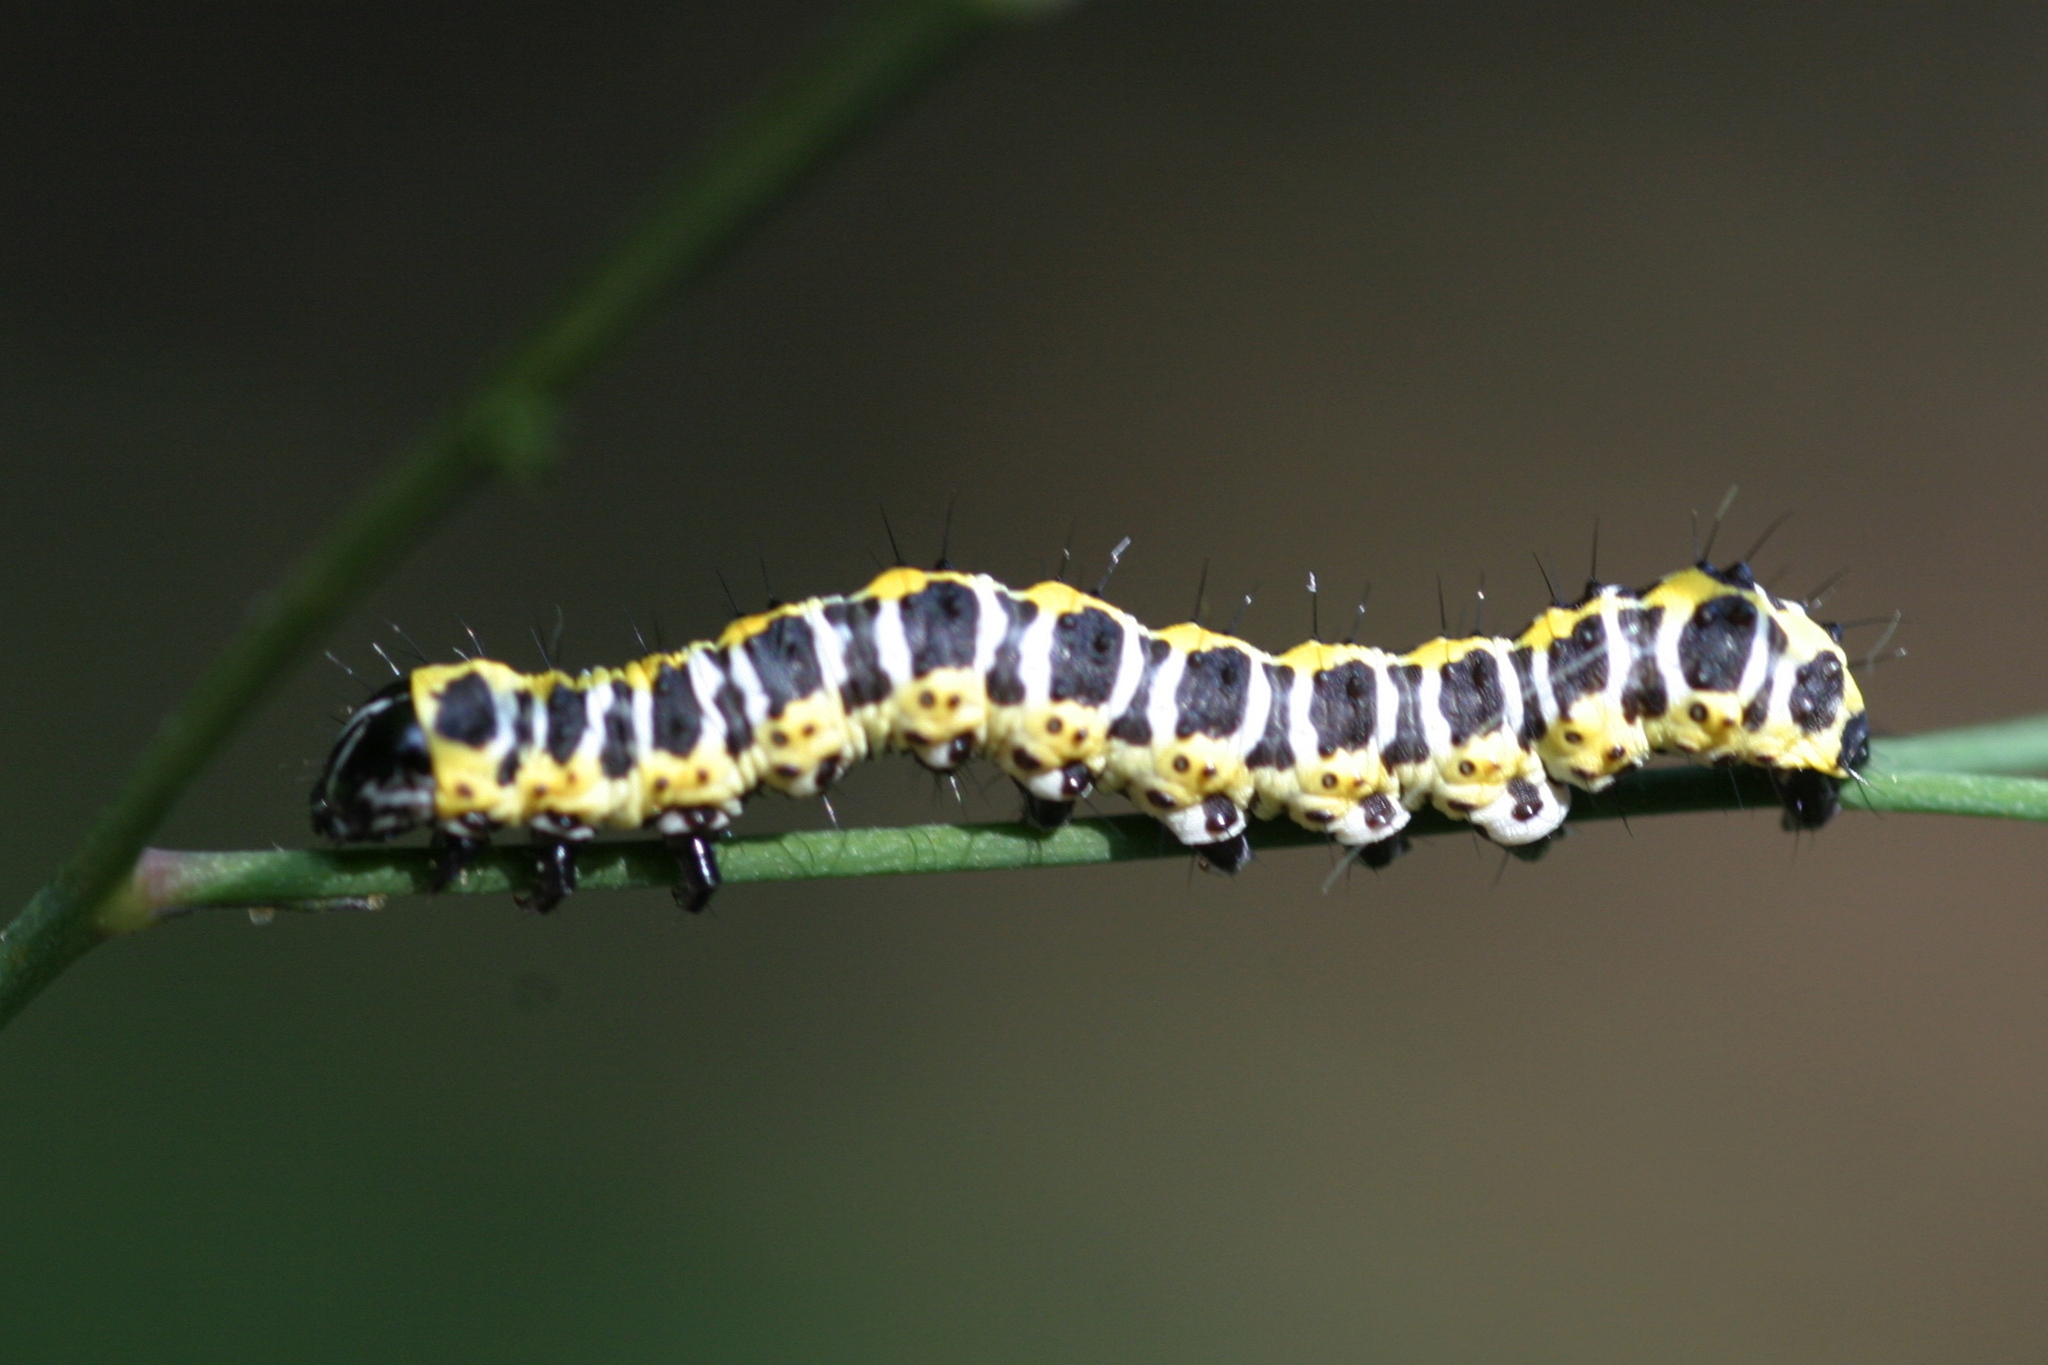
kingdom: Animalia
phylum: Arthropoda
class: Insecta
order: Lepidoptera
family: Noctuidae
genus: Cucullia
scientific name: Cucullia lactucae
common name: Lettuce shark
